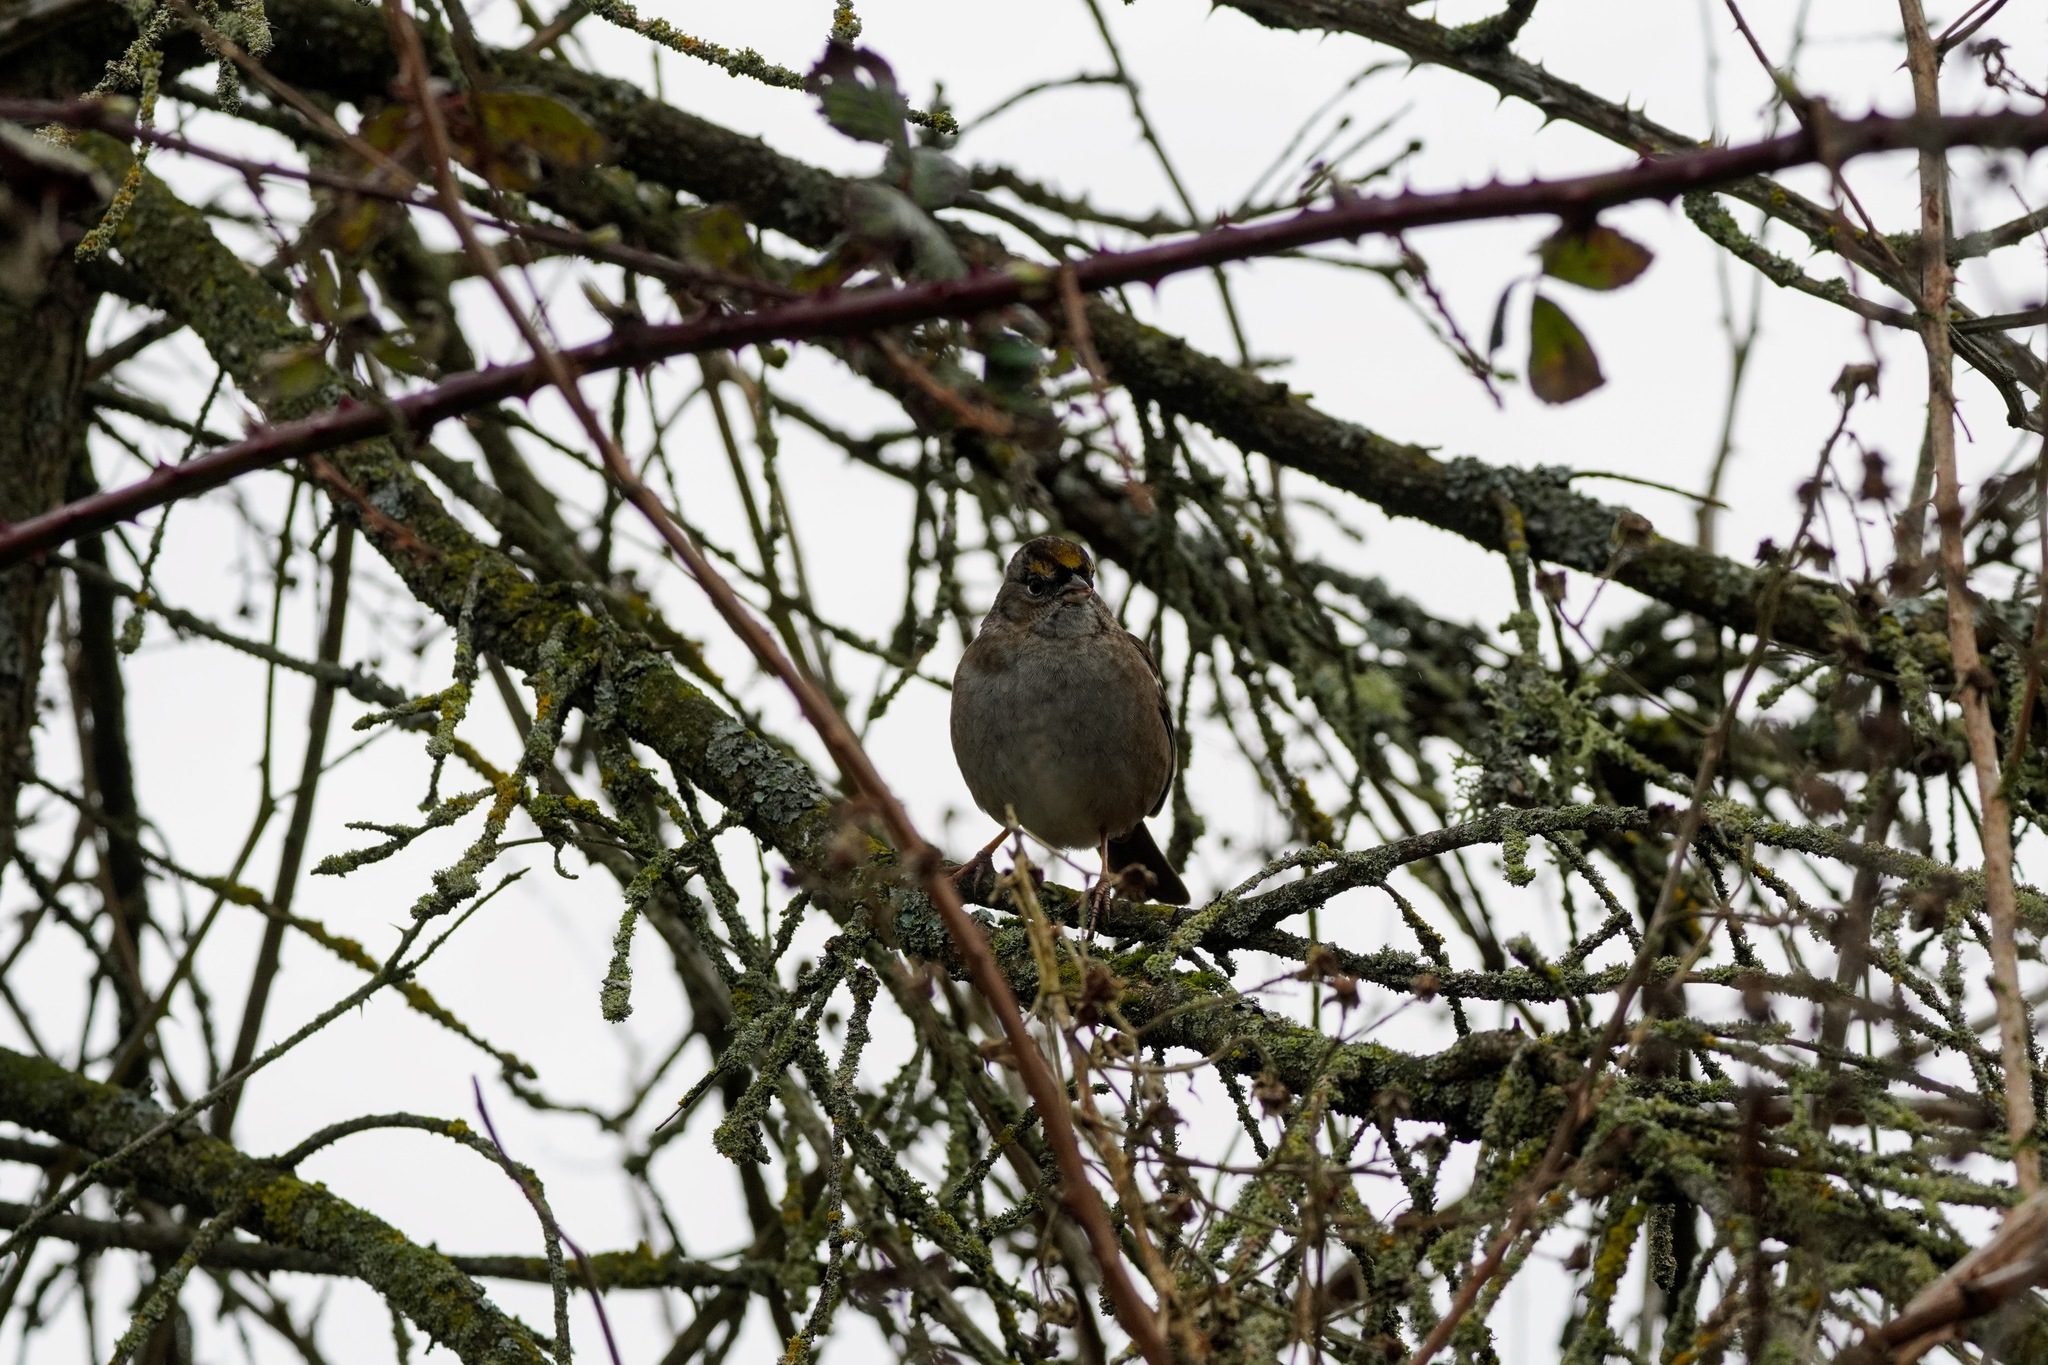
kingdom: Animalia
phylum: Chordata
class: Aves
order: Passeriformes
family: Passerellidae
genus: Zonotrichia
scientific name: Zonotrichia atricapilla
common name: Golden-crowned sparrow
